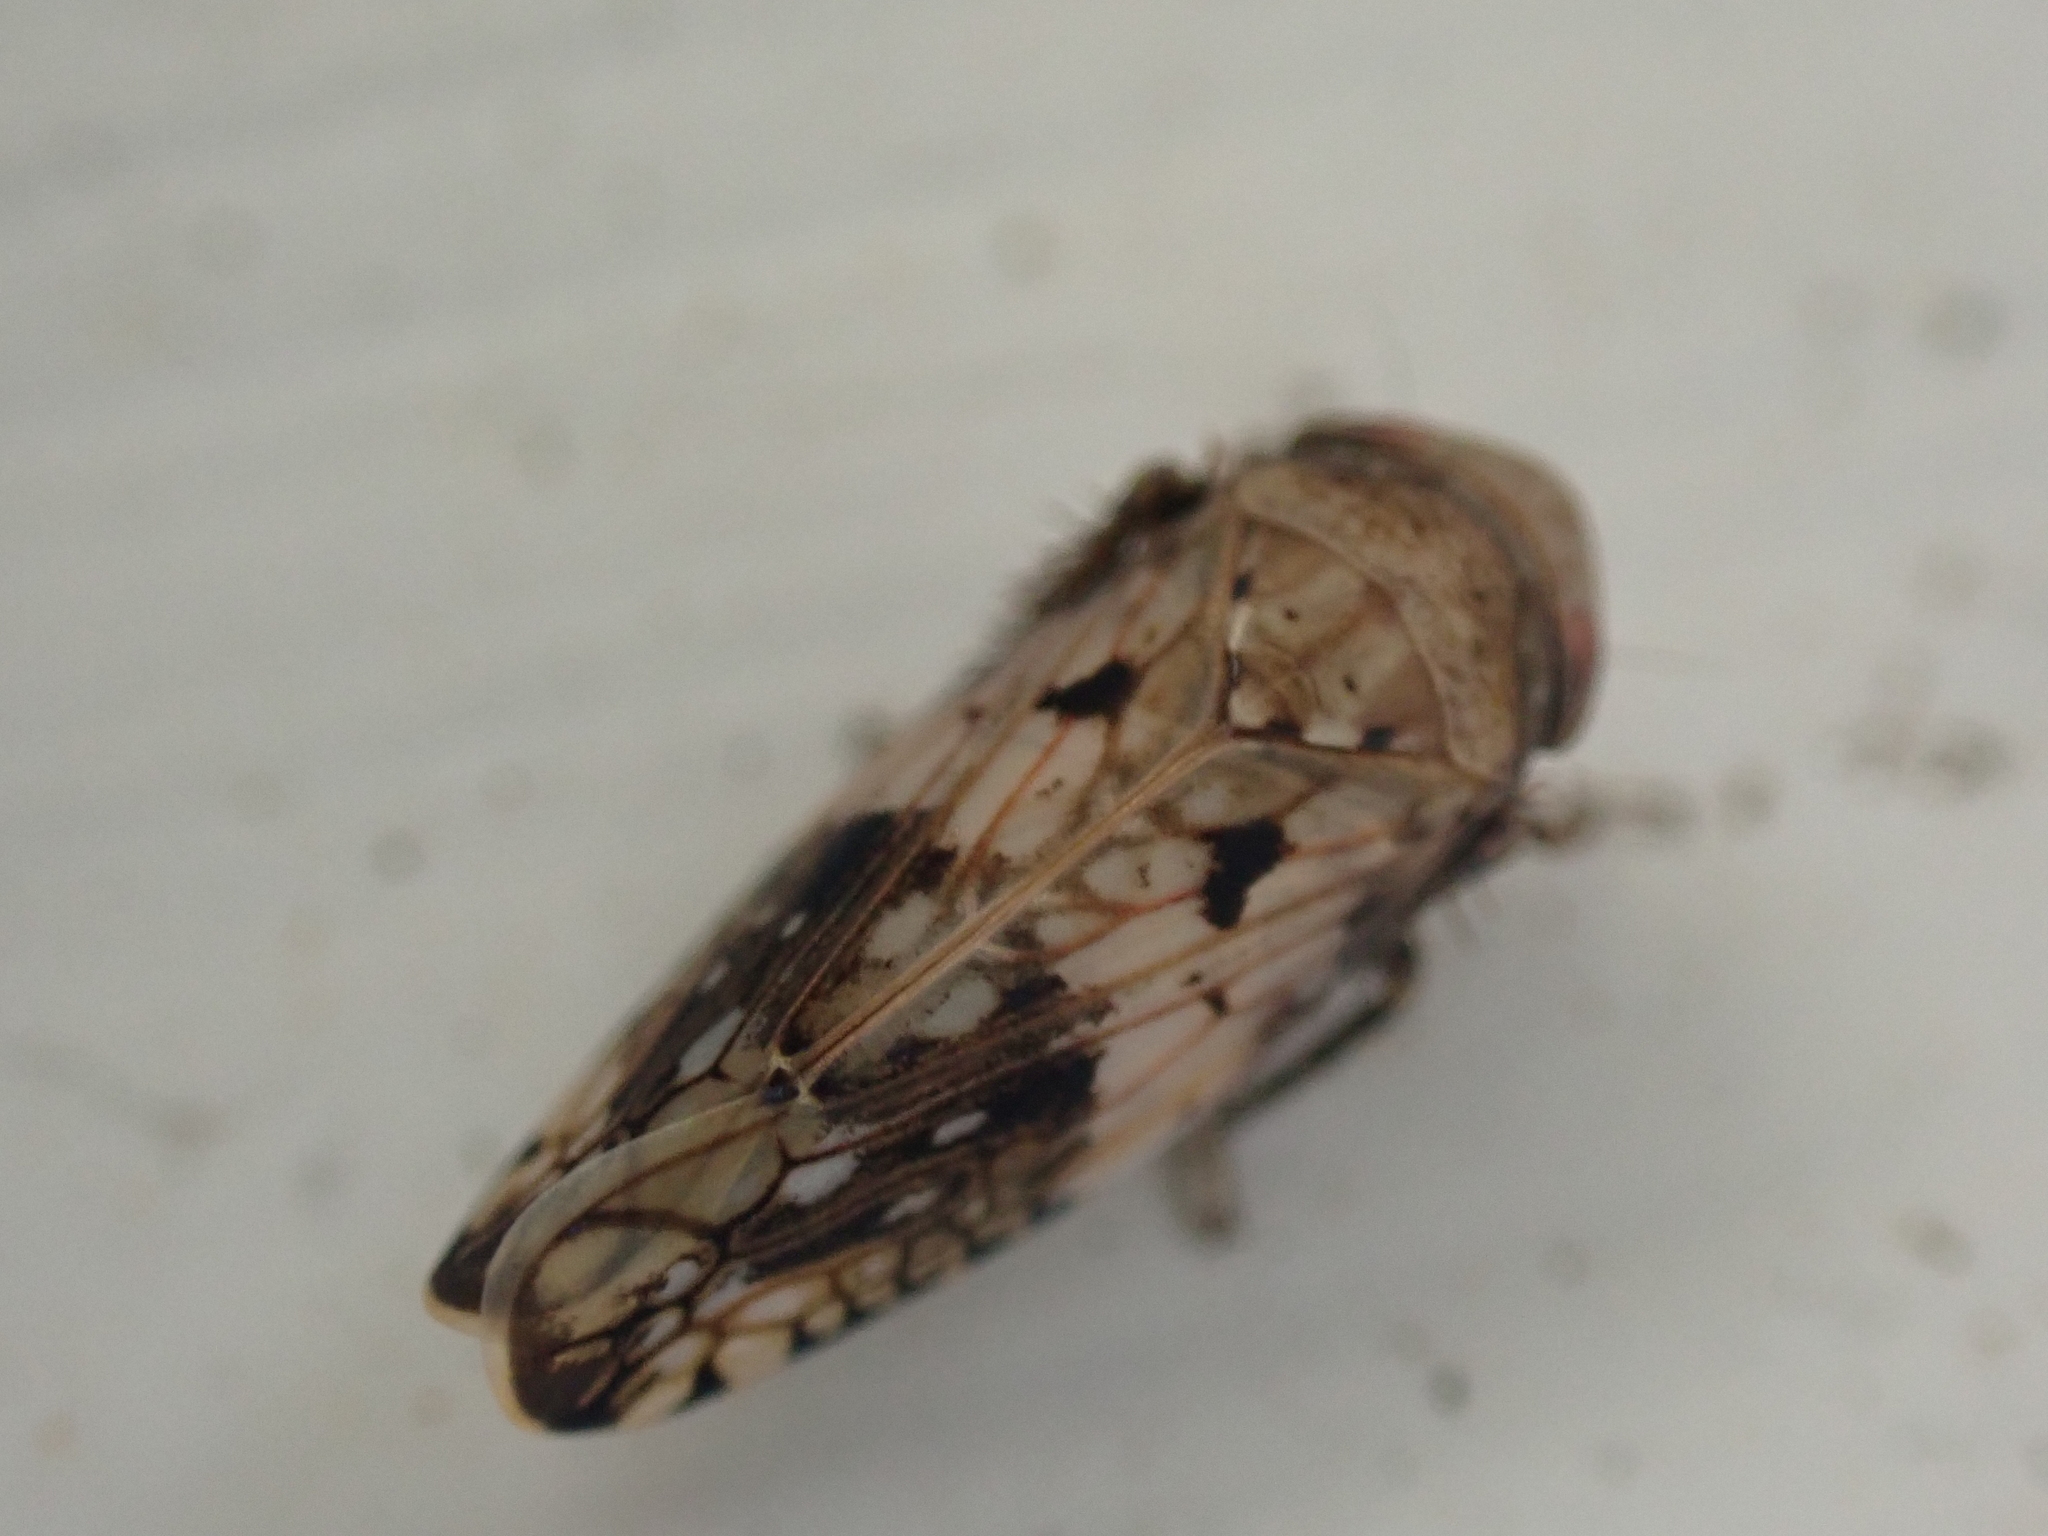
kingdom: Animalia
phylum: Arthropoda
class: Insecta
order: Hemiptera
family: Cicadellidae
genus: Menosoma
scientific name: Menosoma cinctum
